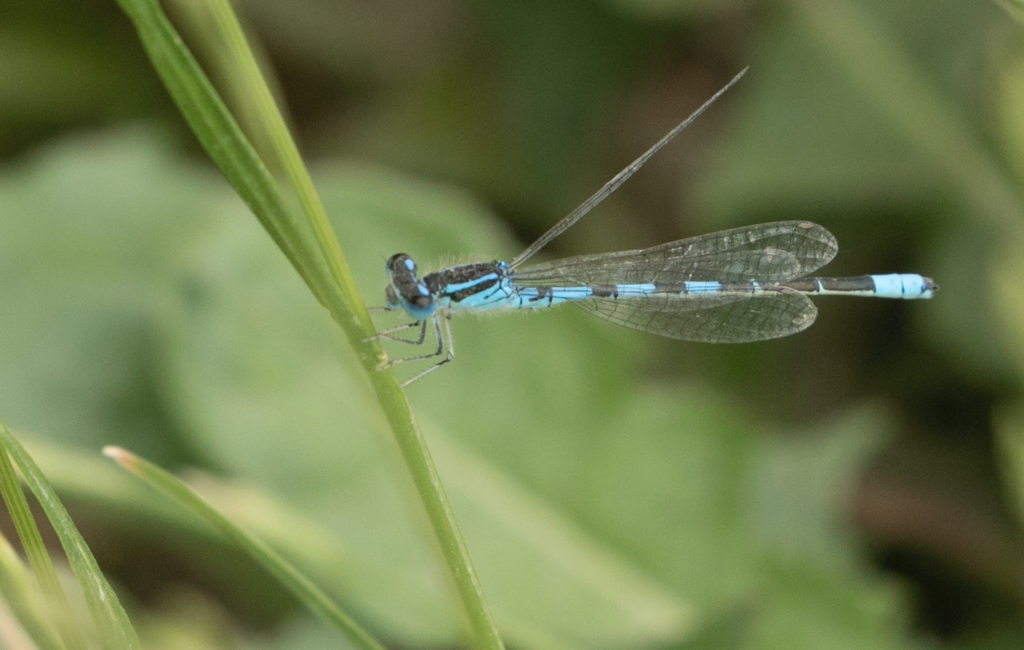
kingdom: Animalia
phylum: Arthropoda
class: Insecta
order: Odonata
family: Coenagrionidae
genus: Coenagrion
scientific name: Coenagrion scitulum
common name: Dainty bluet
